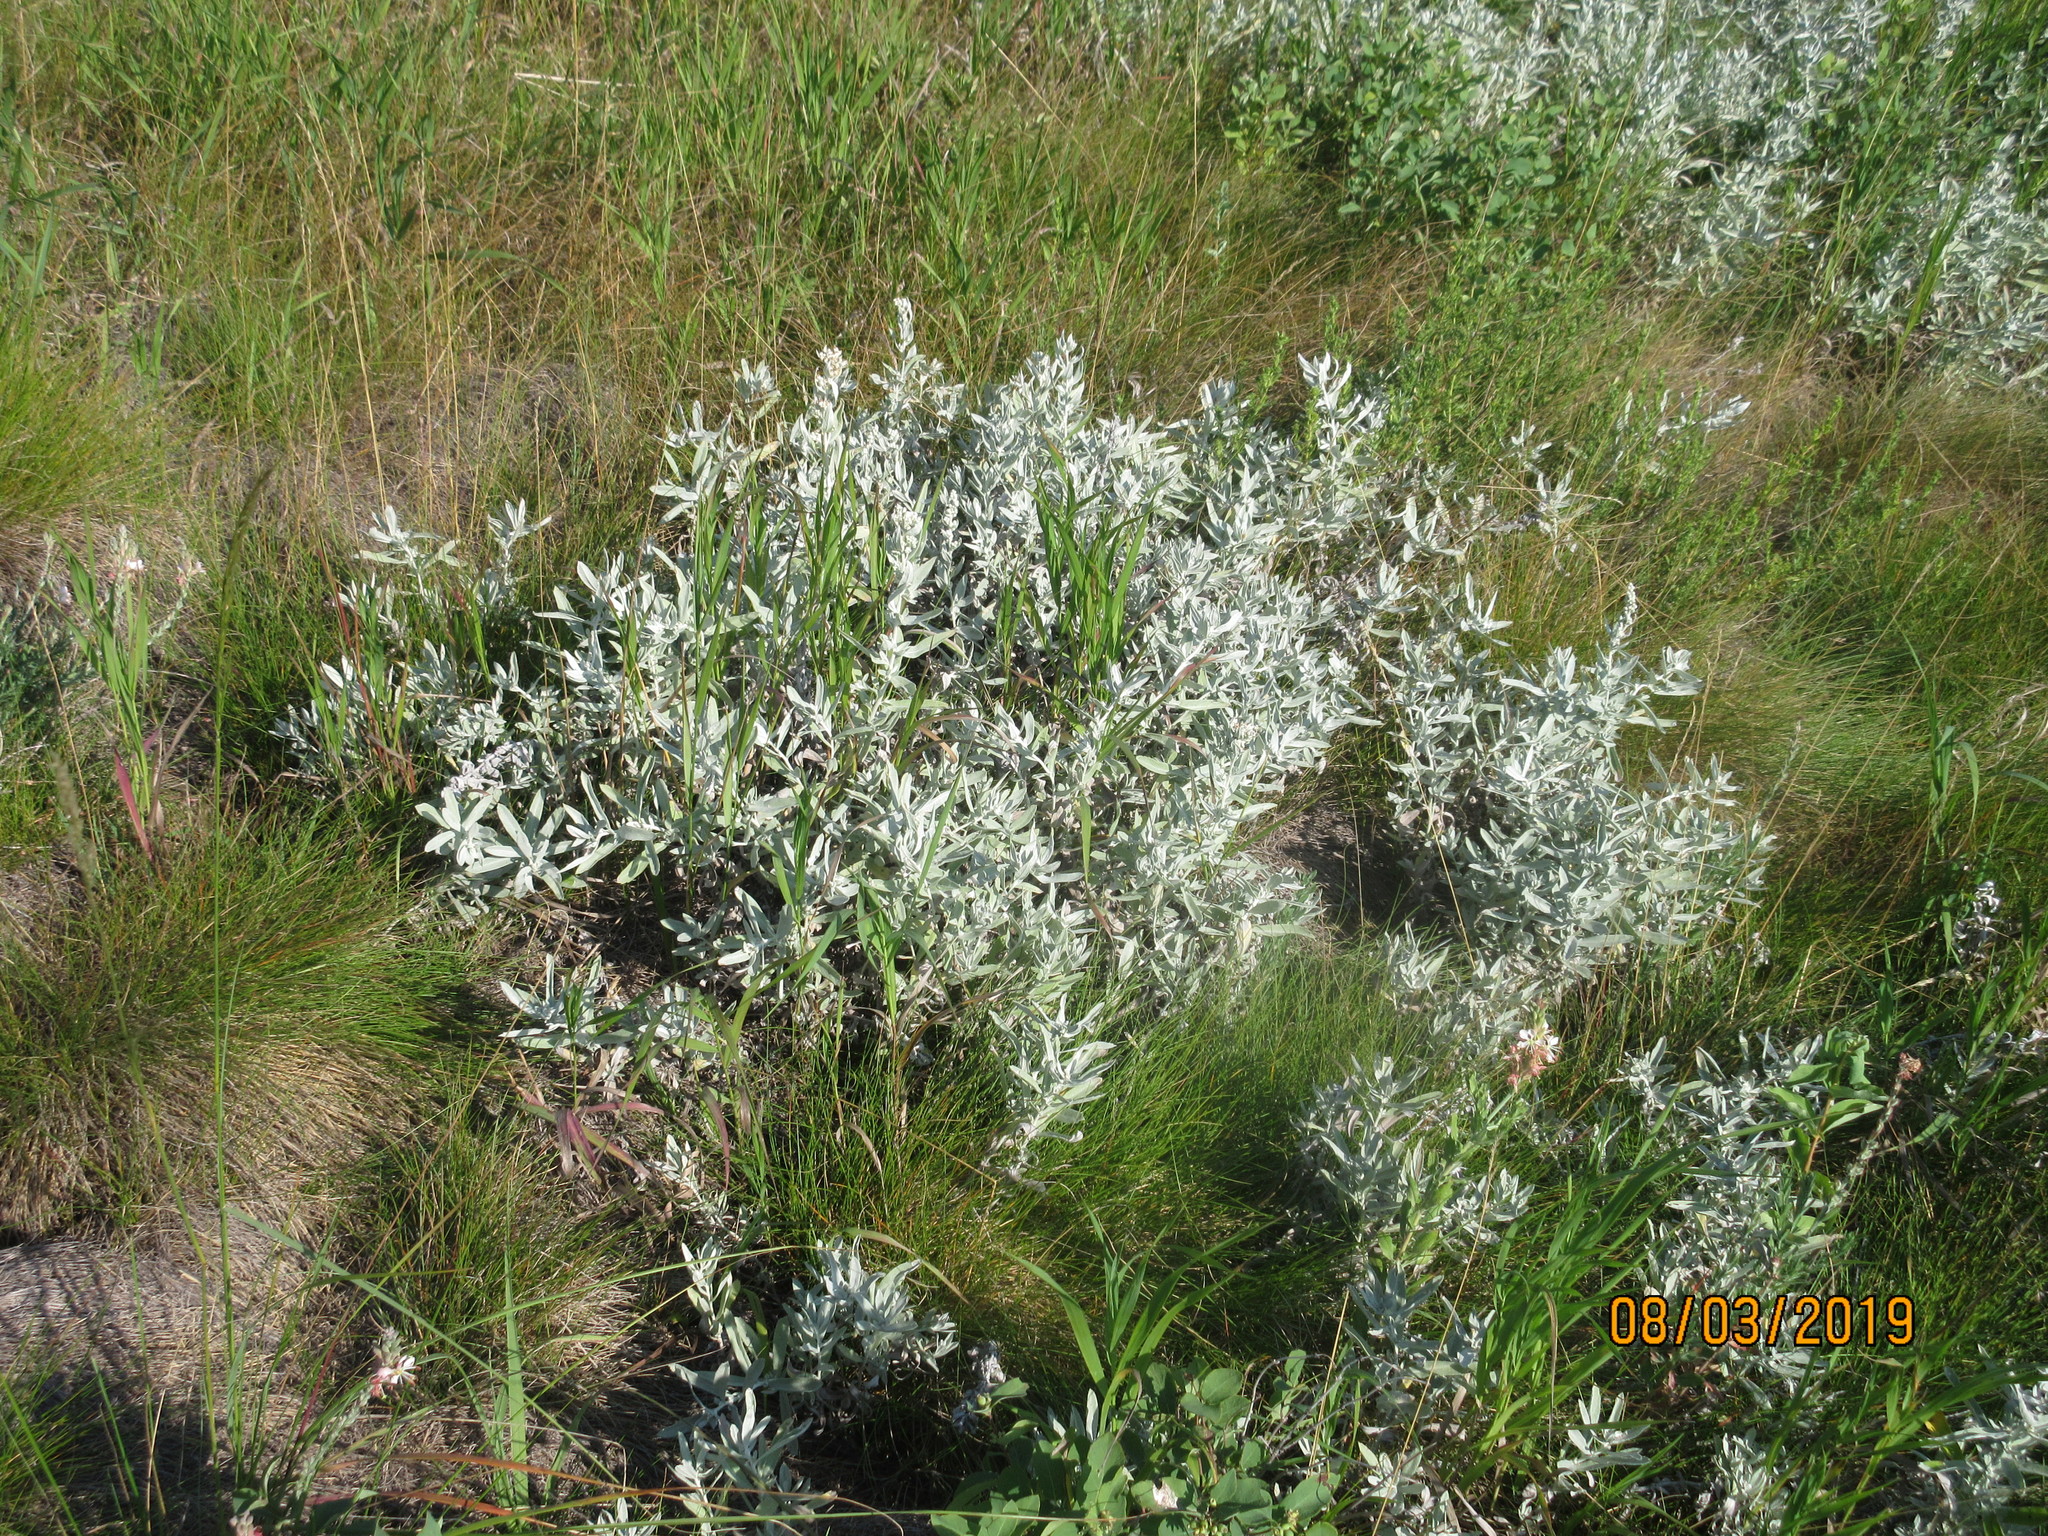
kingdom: Plantae
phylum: Tracheophyta
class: Magnoliopsida
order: Asterales
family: Asteraceae
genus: Artemisia
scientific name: Artemisia ludoviciana
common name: Western mugwort
